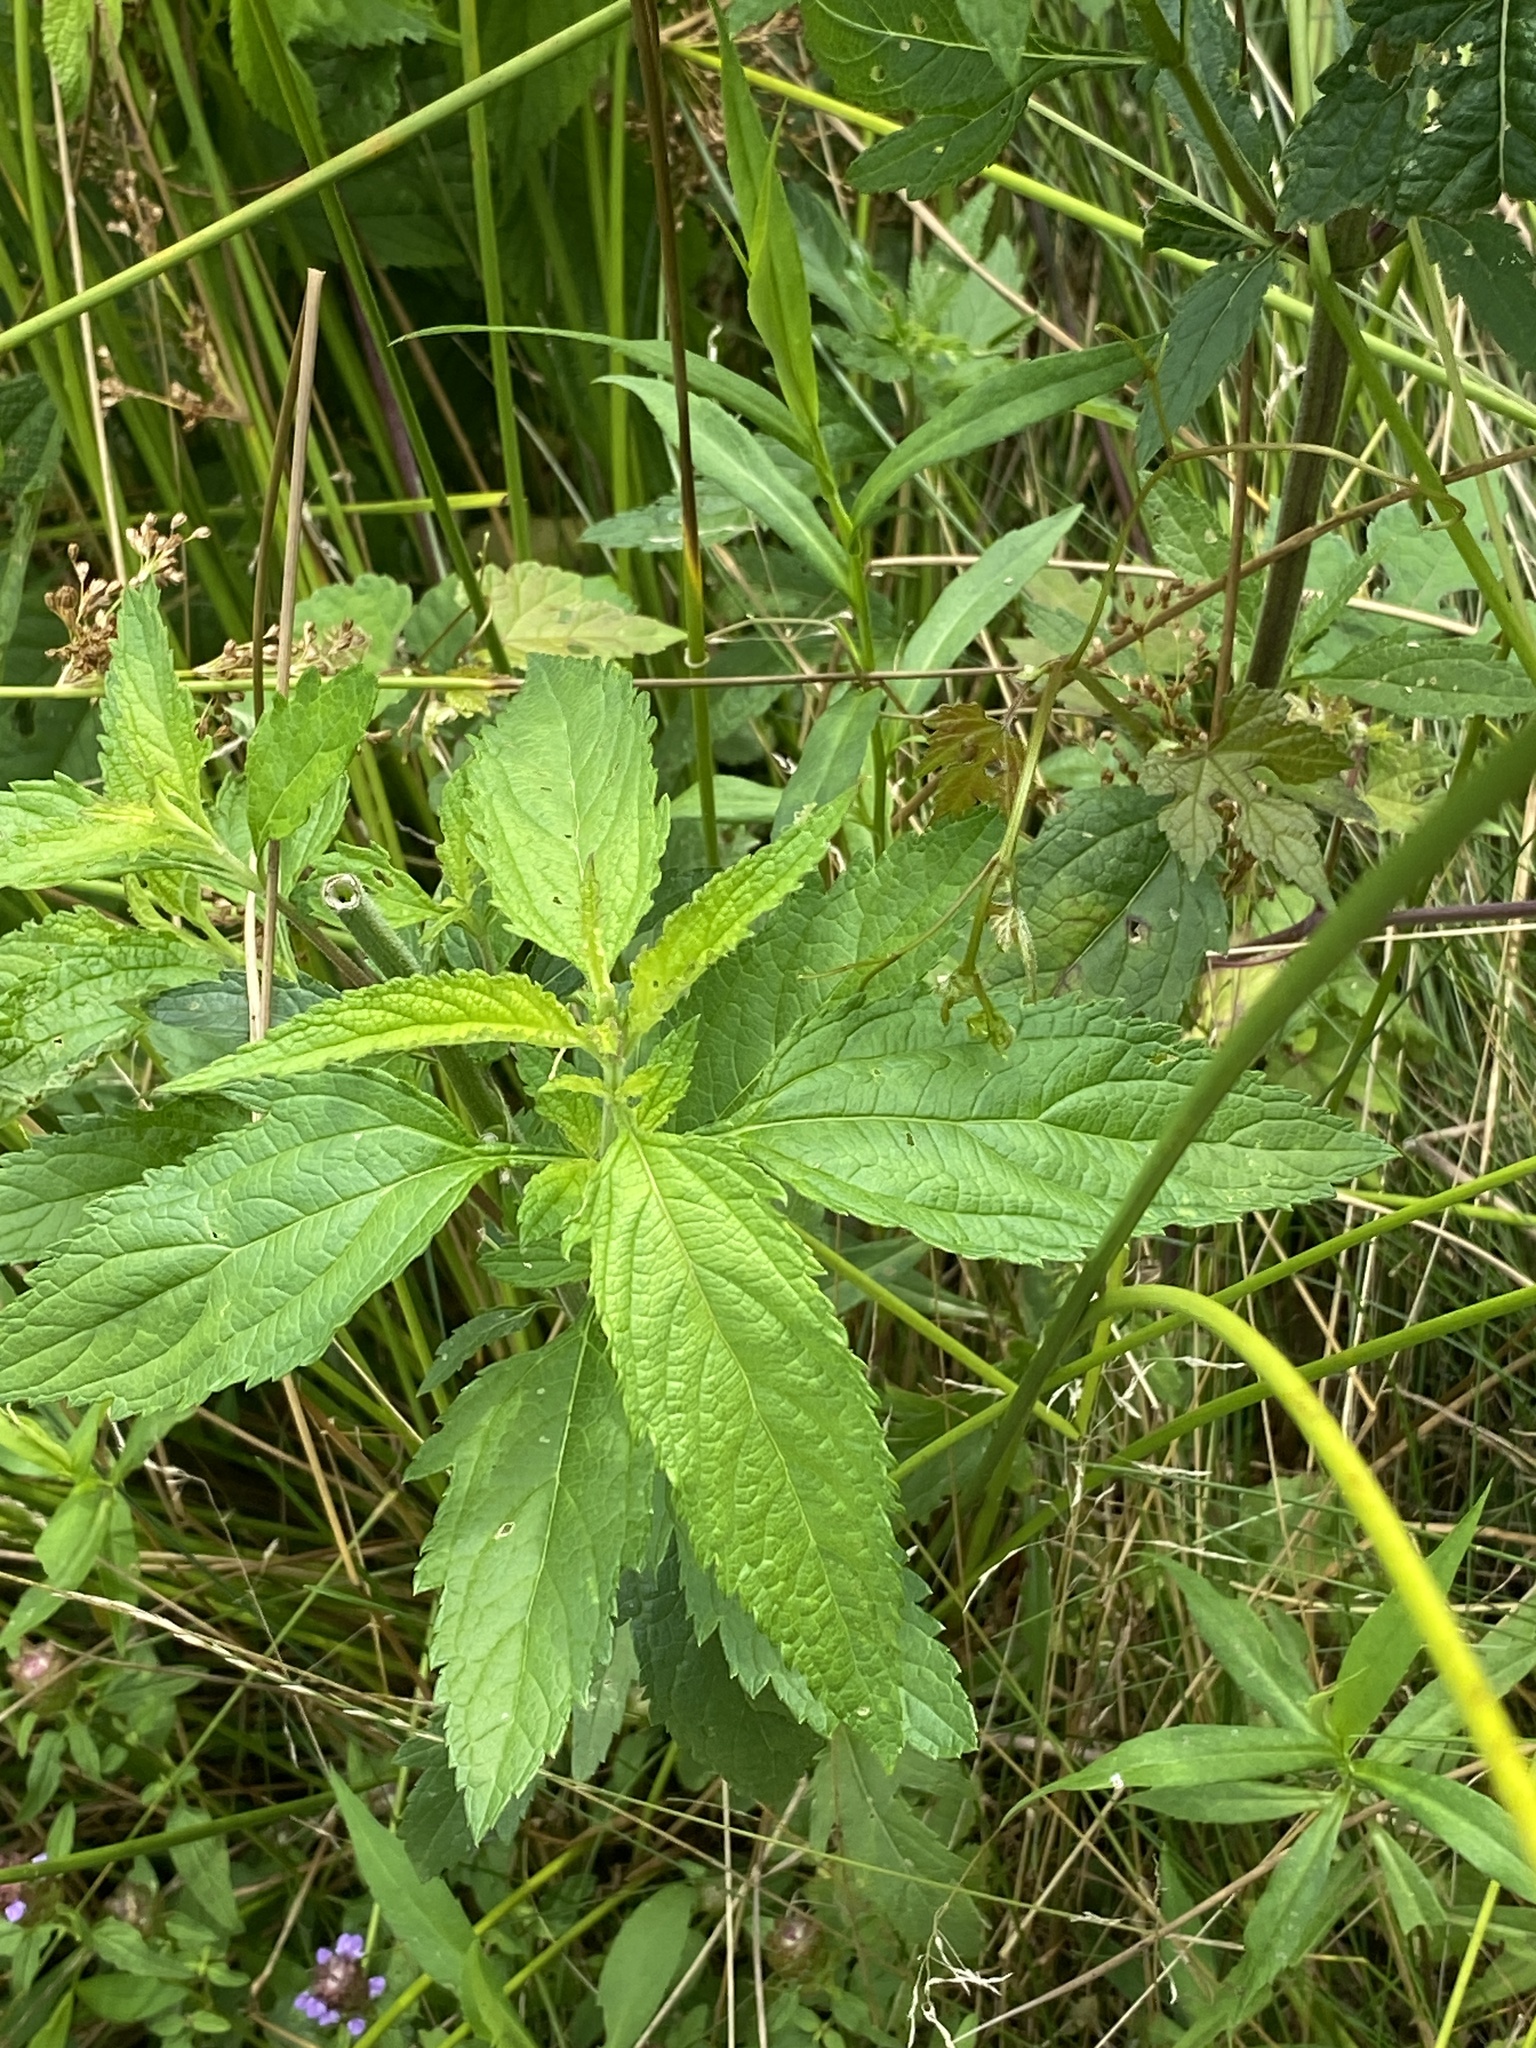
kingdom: Plantae
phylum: Tracheophyta
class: Magnoliopsida
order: Lamiales
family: Verbenaceae
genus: Verbena
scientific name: Verbena hastata
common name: American blue vervain
